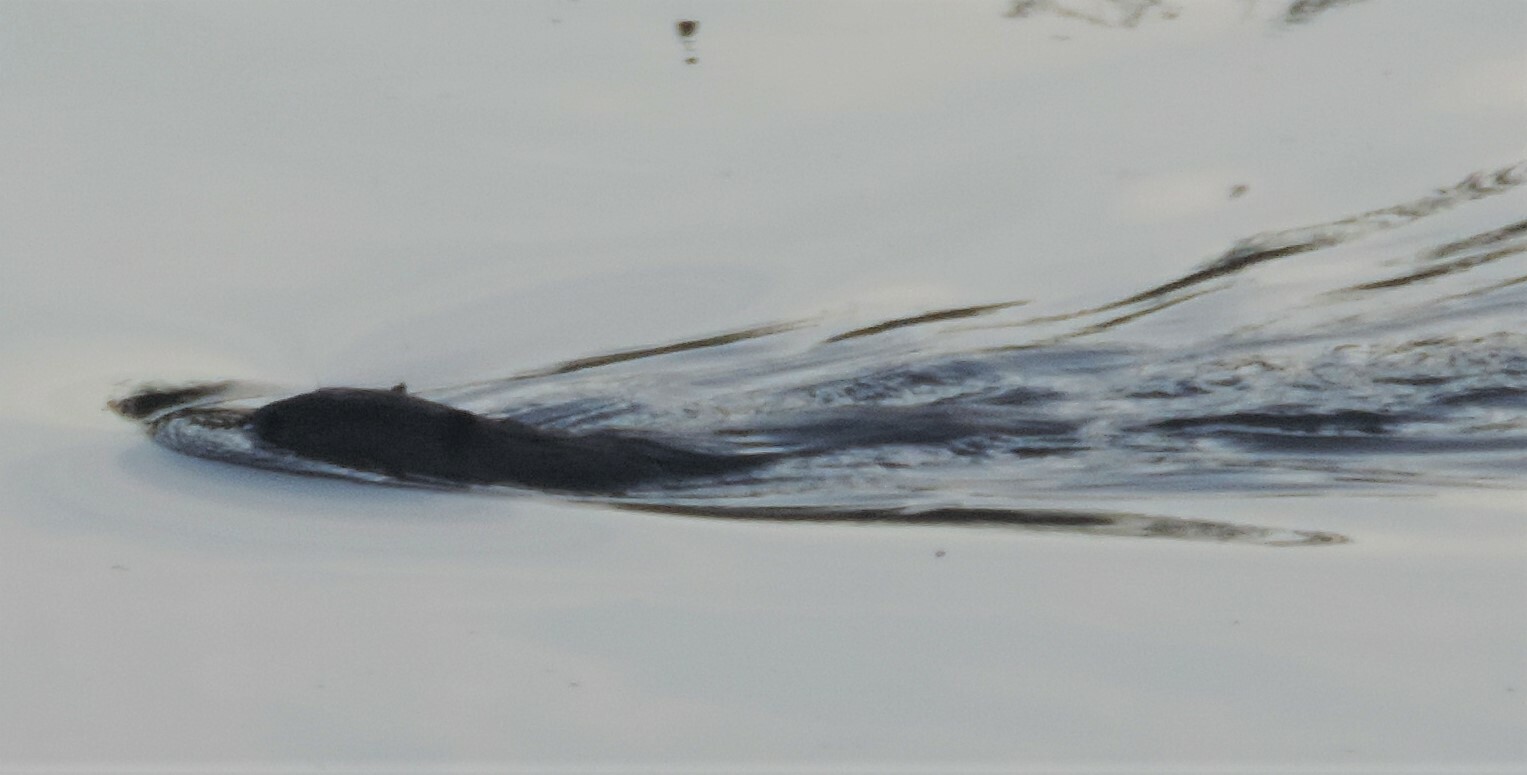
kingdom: Animalia
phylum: Chordata
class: Mammalia
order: Rodentia
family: Castoridae
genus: Castor
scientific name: Castor canadensis
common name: American beaver
